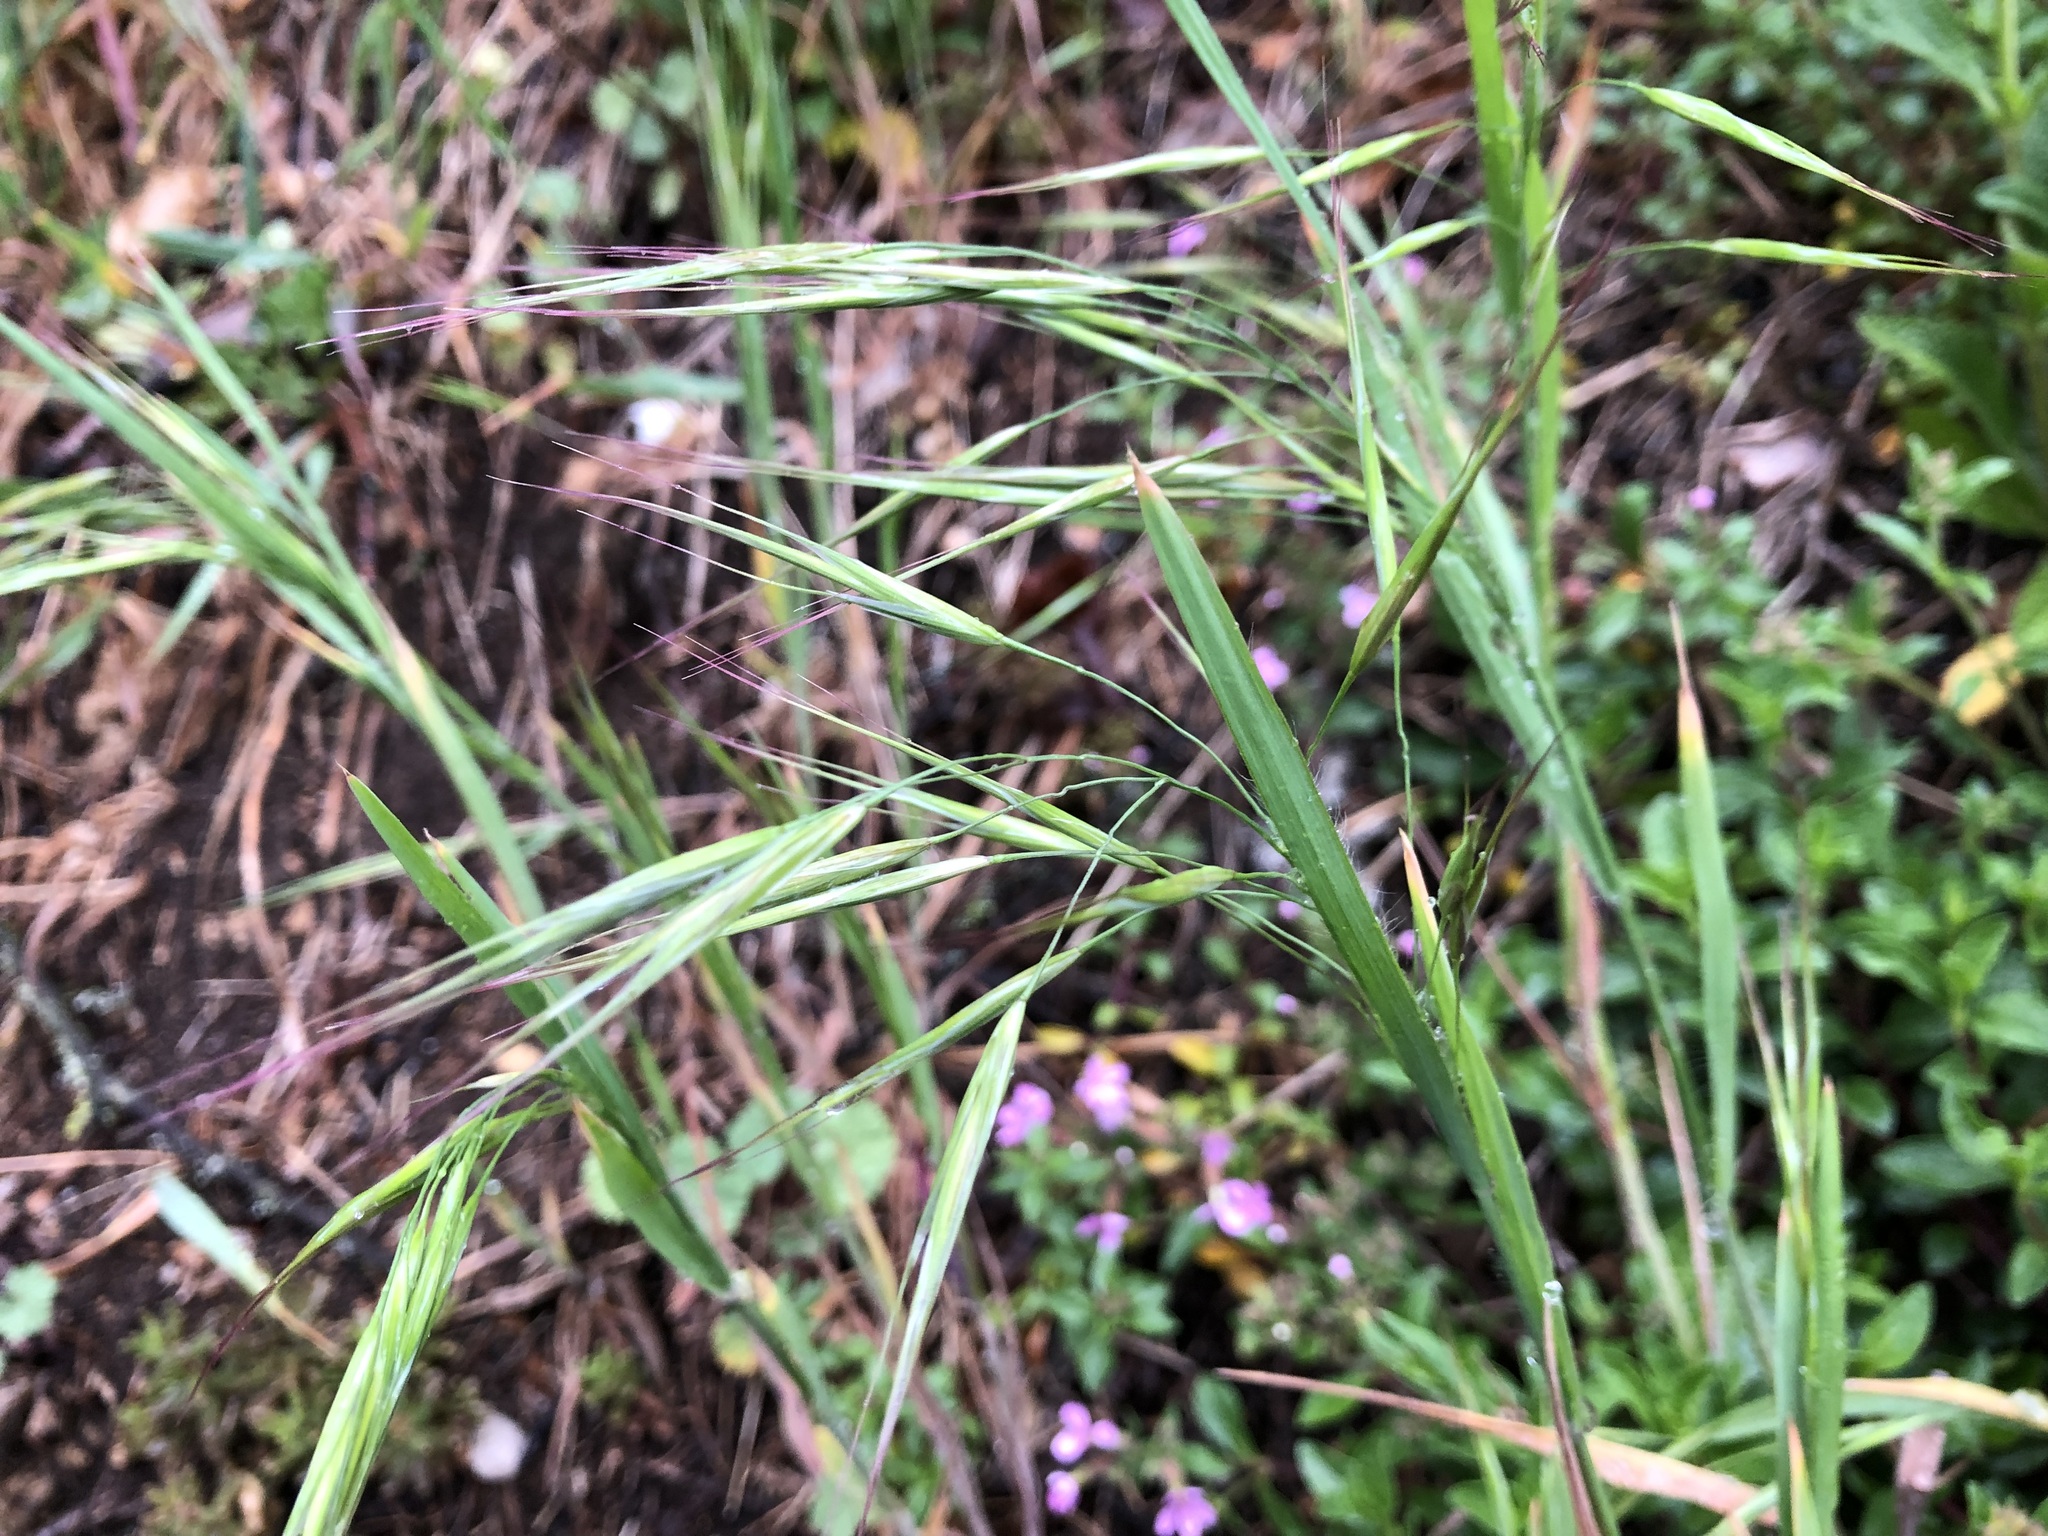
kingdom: Plantae
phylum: Tracheophyta
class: Liliopsida
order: Poales
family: Poaceae
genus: Bromus
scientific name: Bromus sterilis
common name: Poverty brome
